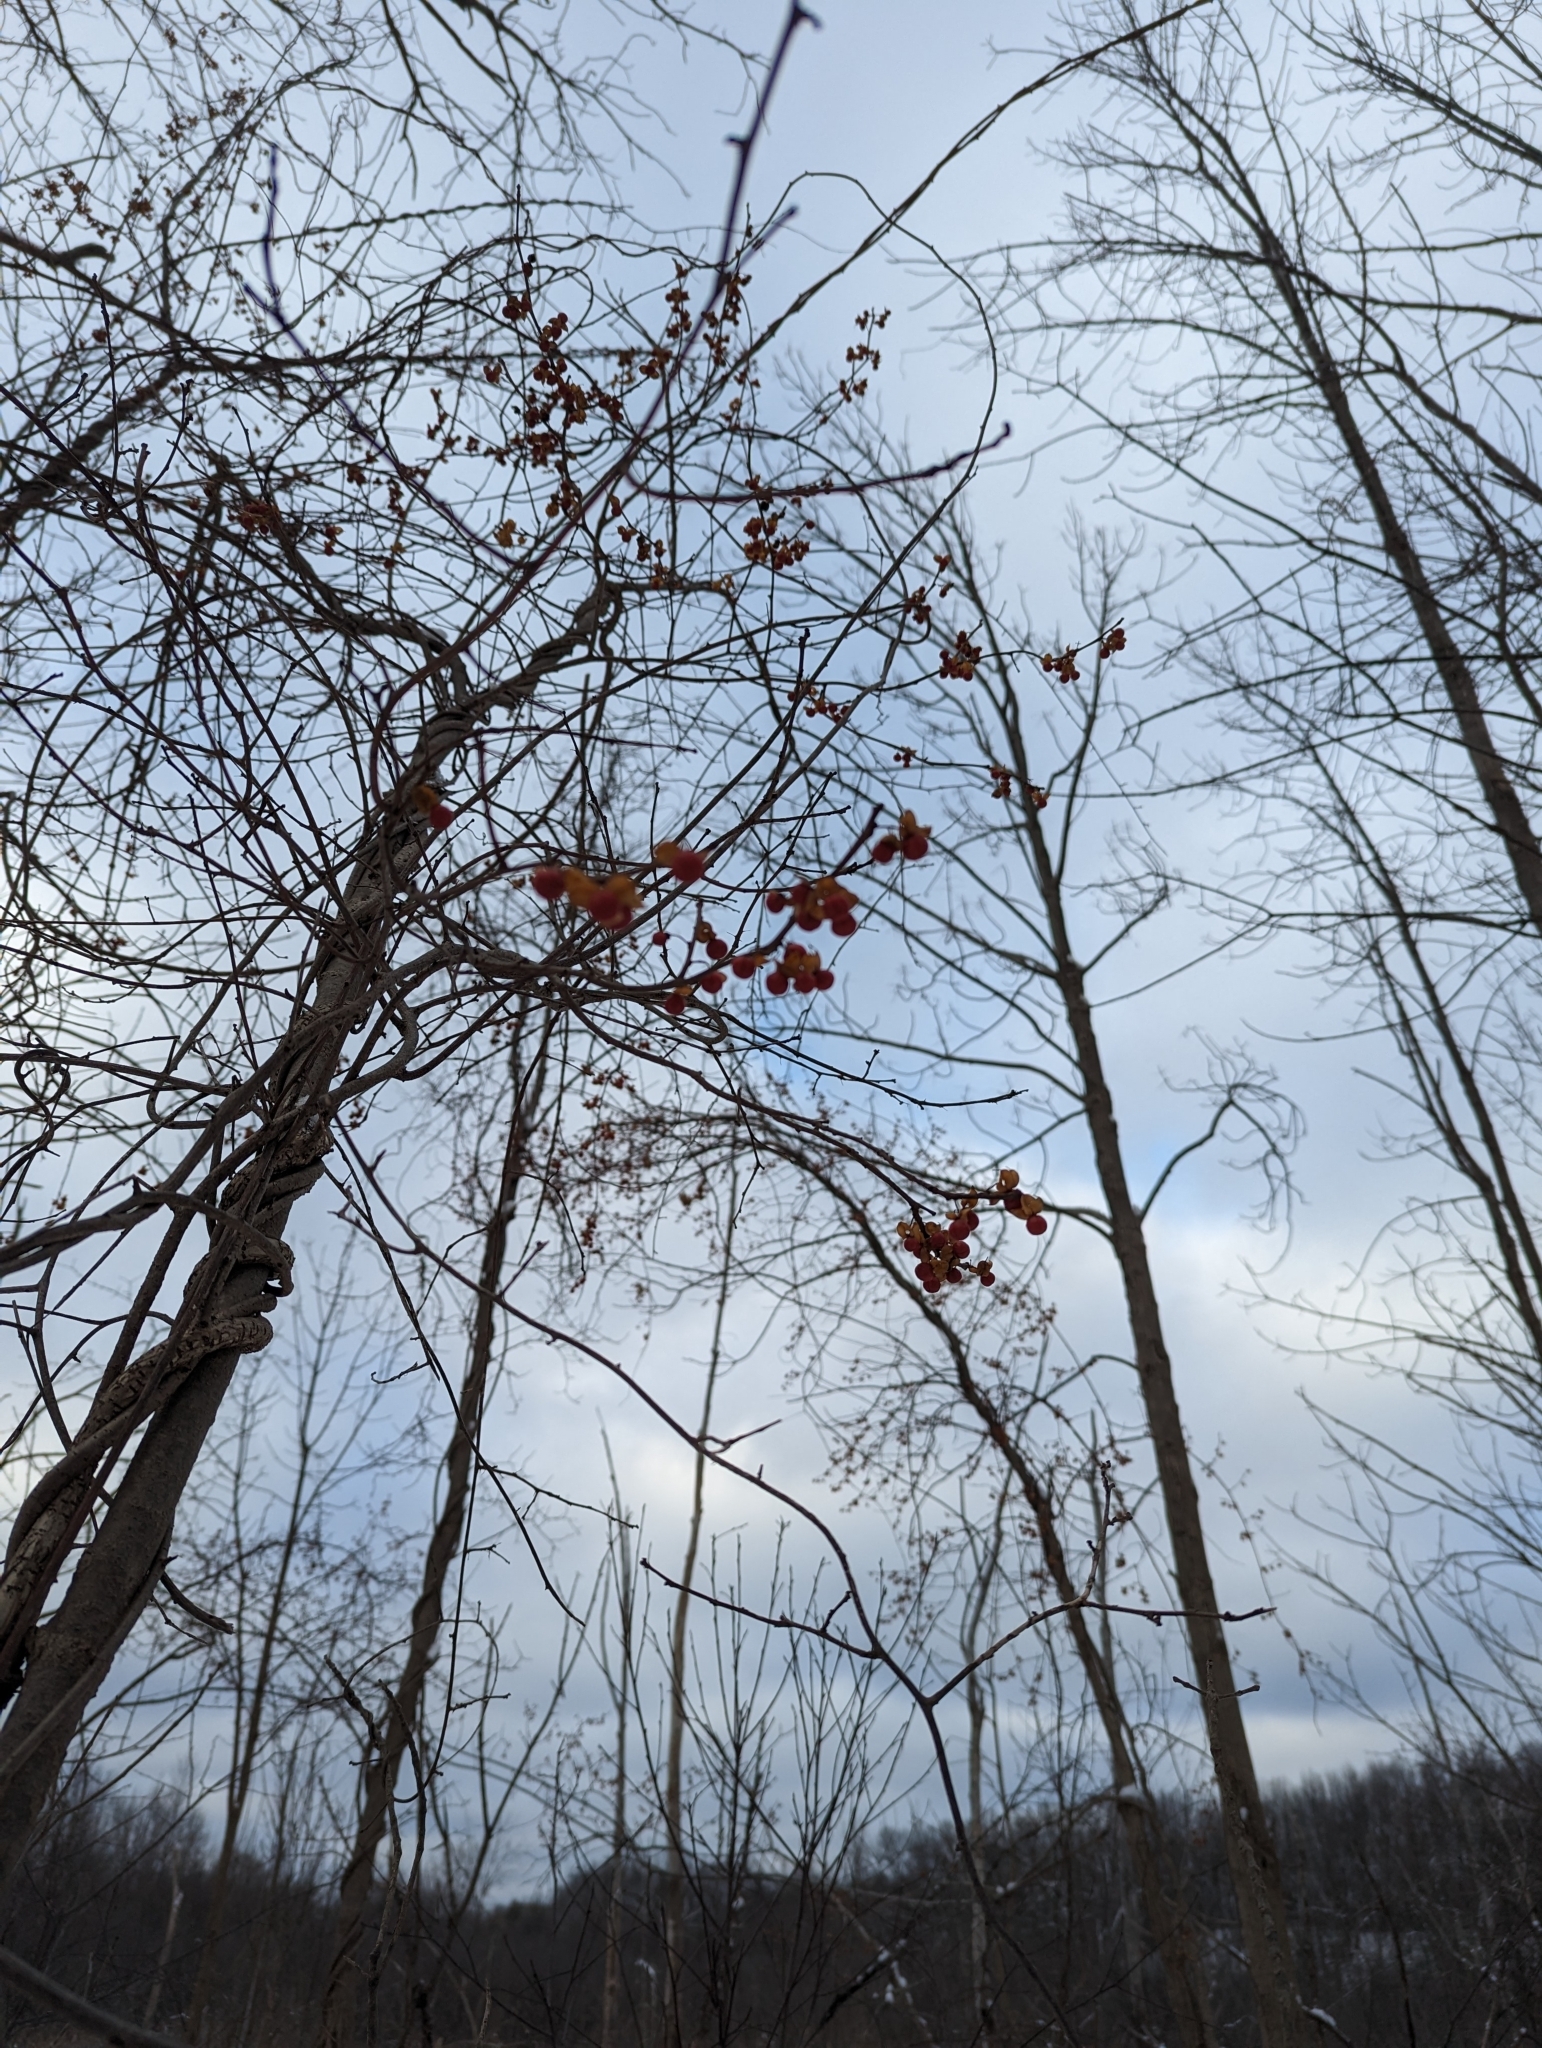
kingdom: Plantae
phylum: Tracheophyta
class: Magnoliopsida
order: Celastrales
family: Celastraceae
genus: Celastrus
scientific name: Celastrus orbiculatus
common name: Oriental bittersweet
